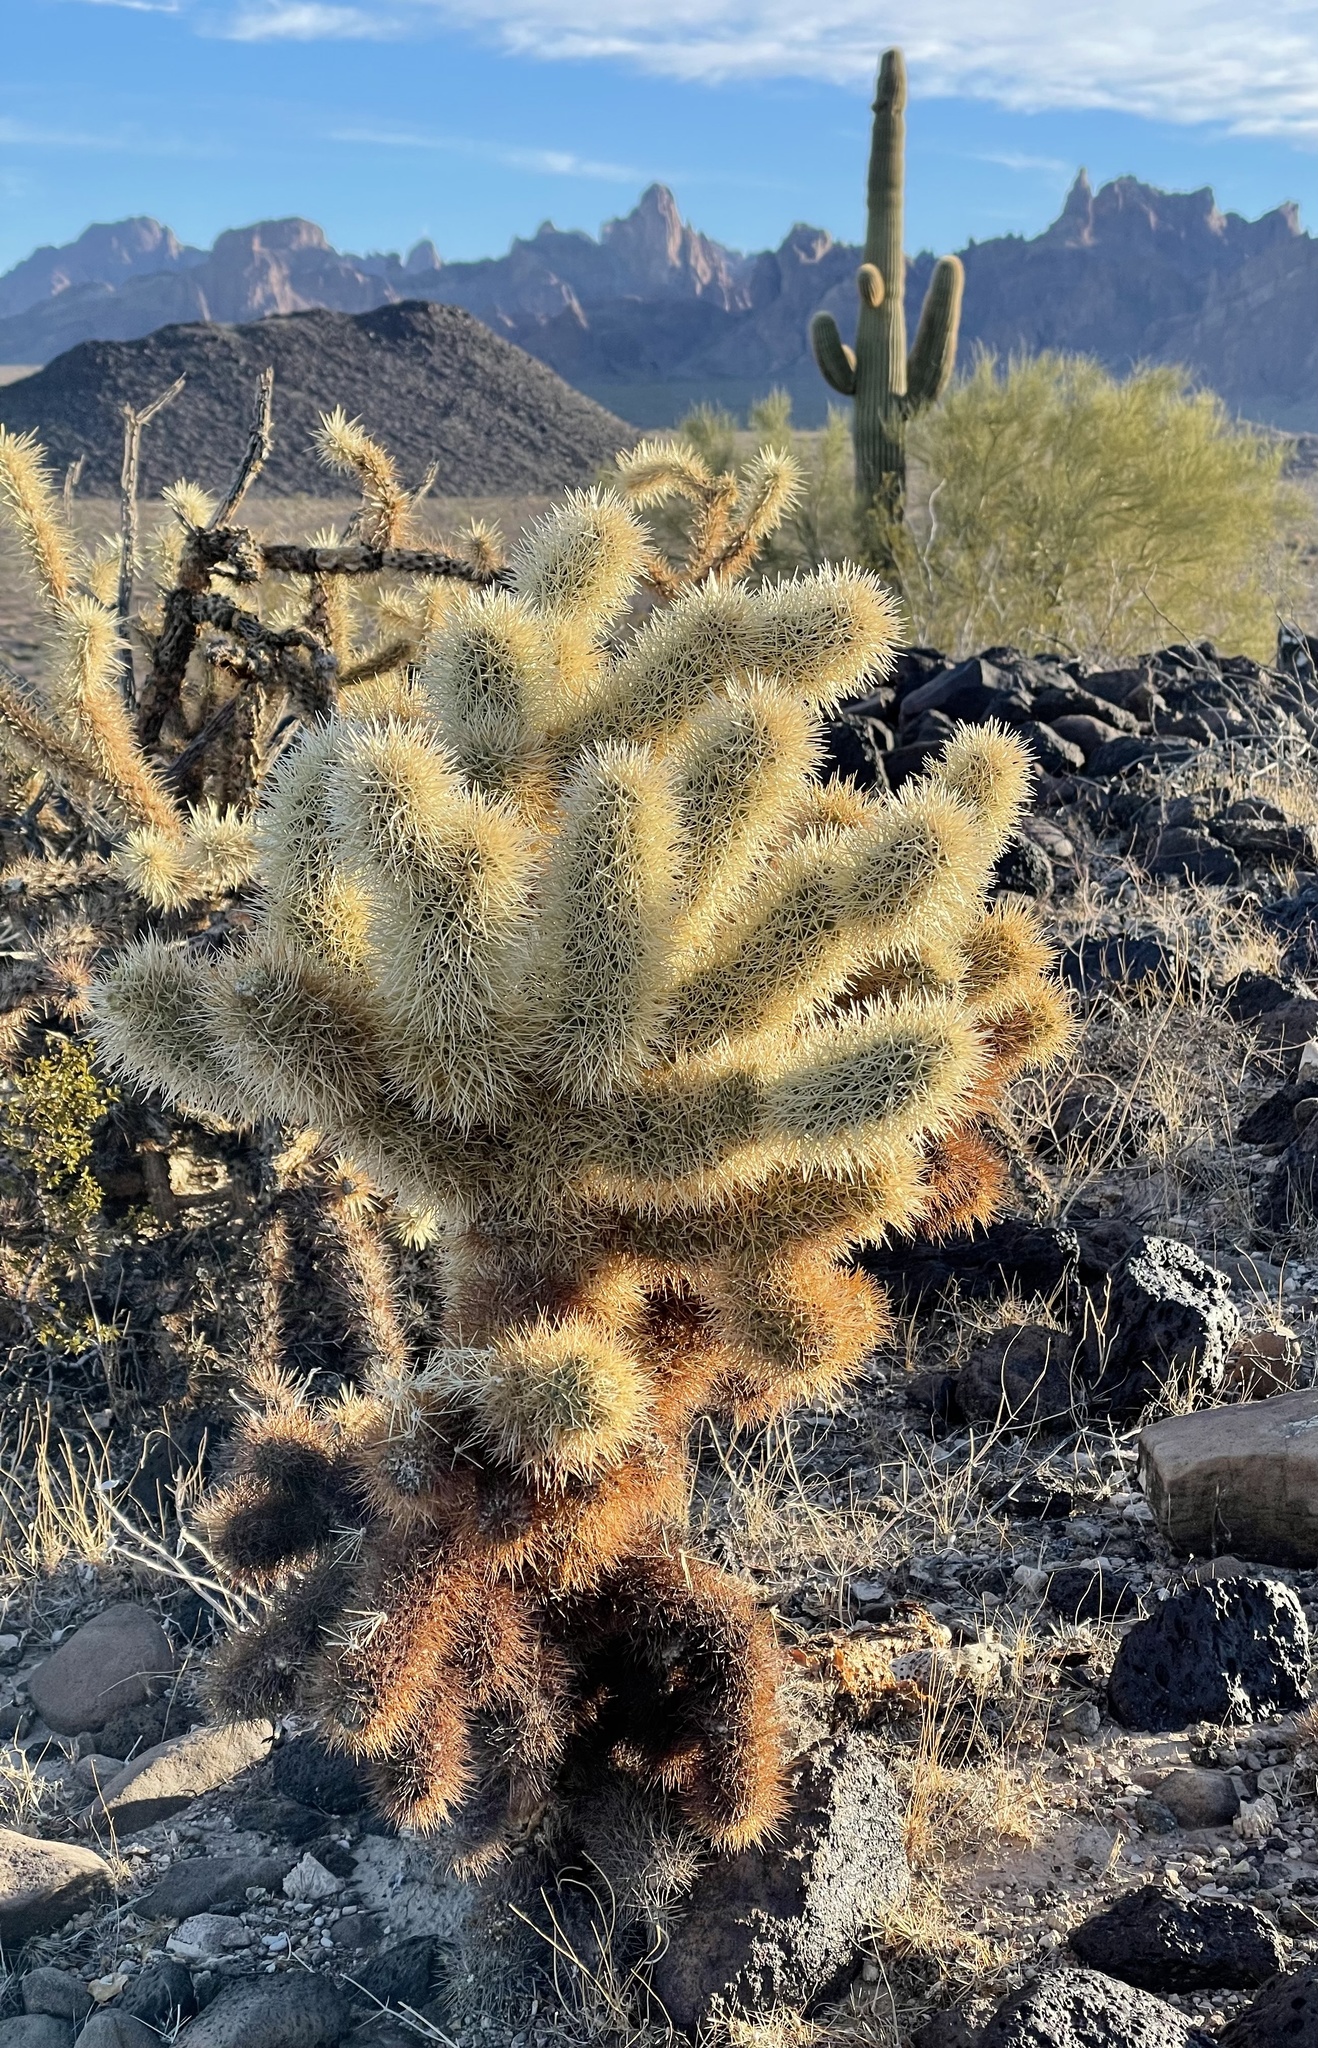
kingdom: Plantae
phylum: Tracheophyta
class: Magnoliopsida
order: Caryophyllales
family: Cactaceae
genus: Cylindropuntia
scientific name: Cylindropuntia fosbergii
